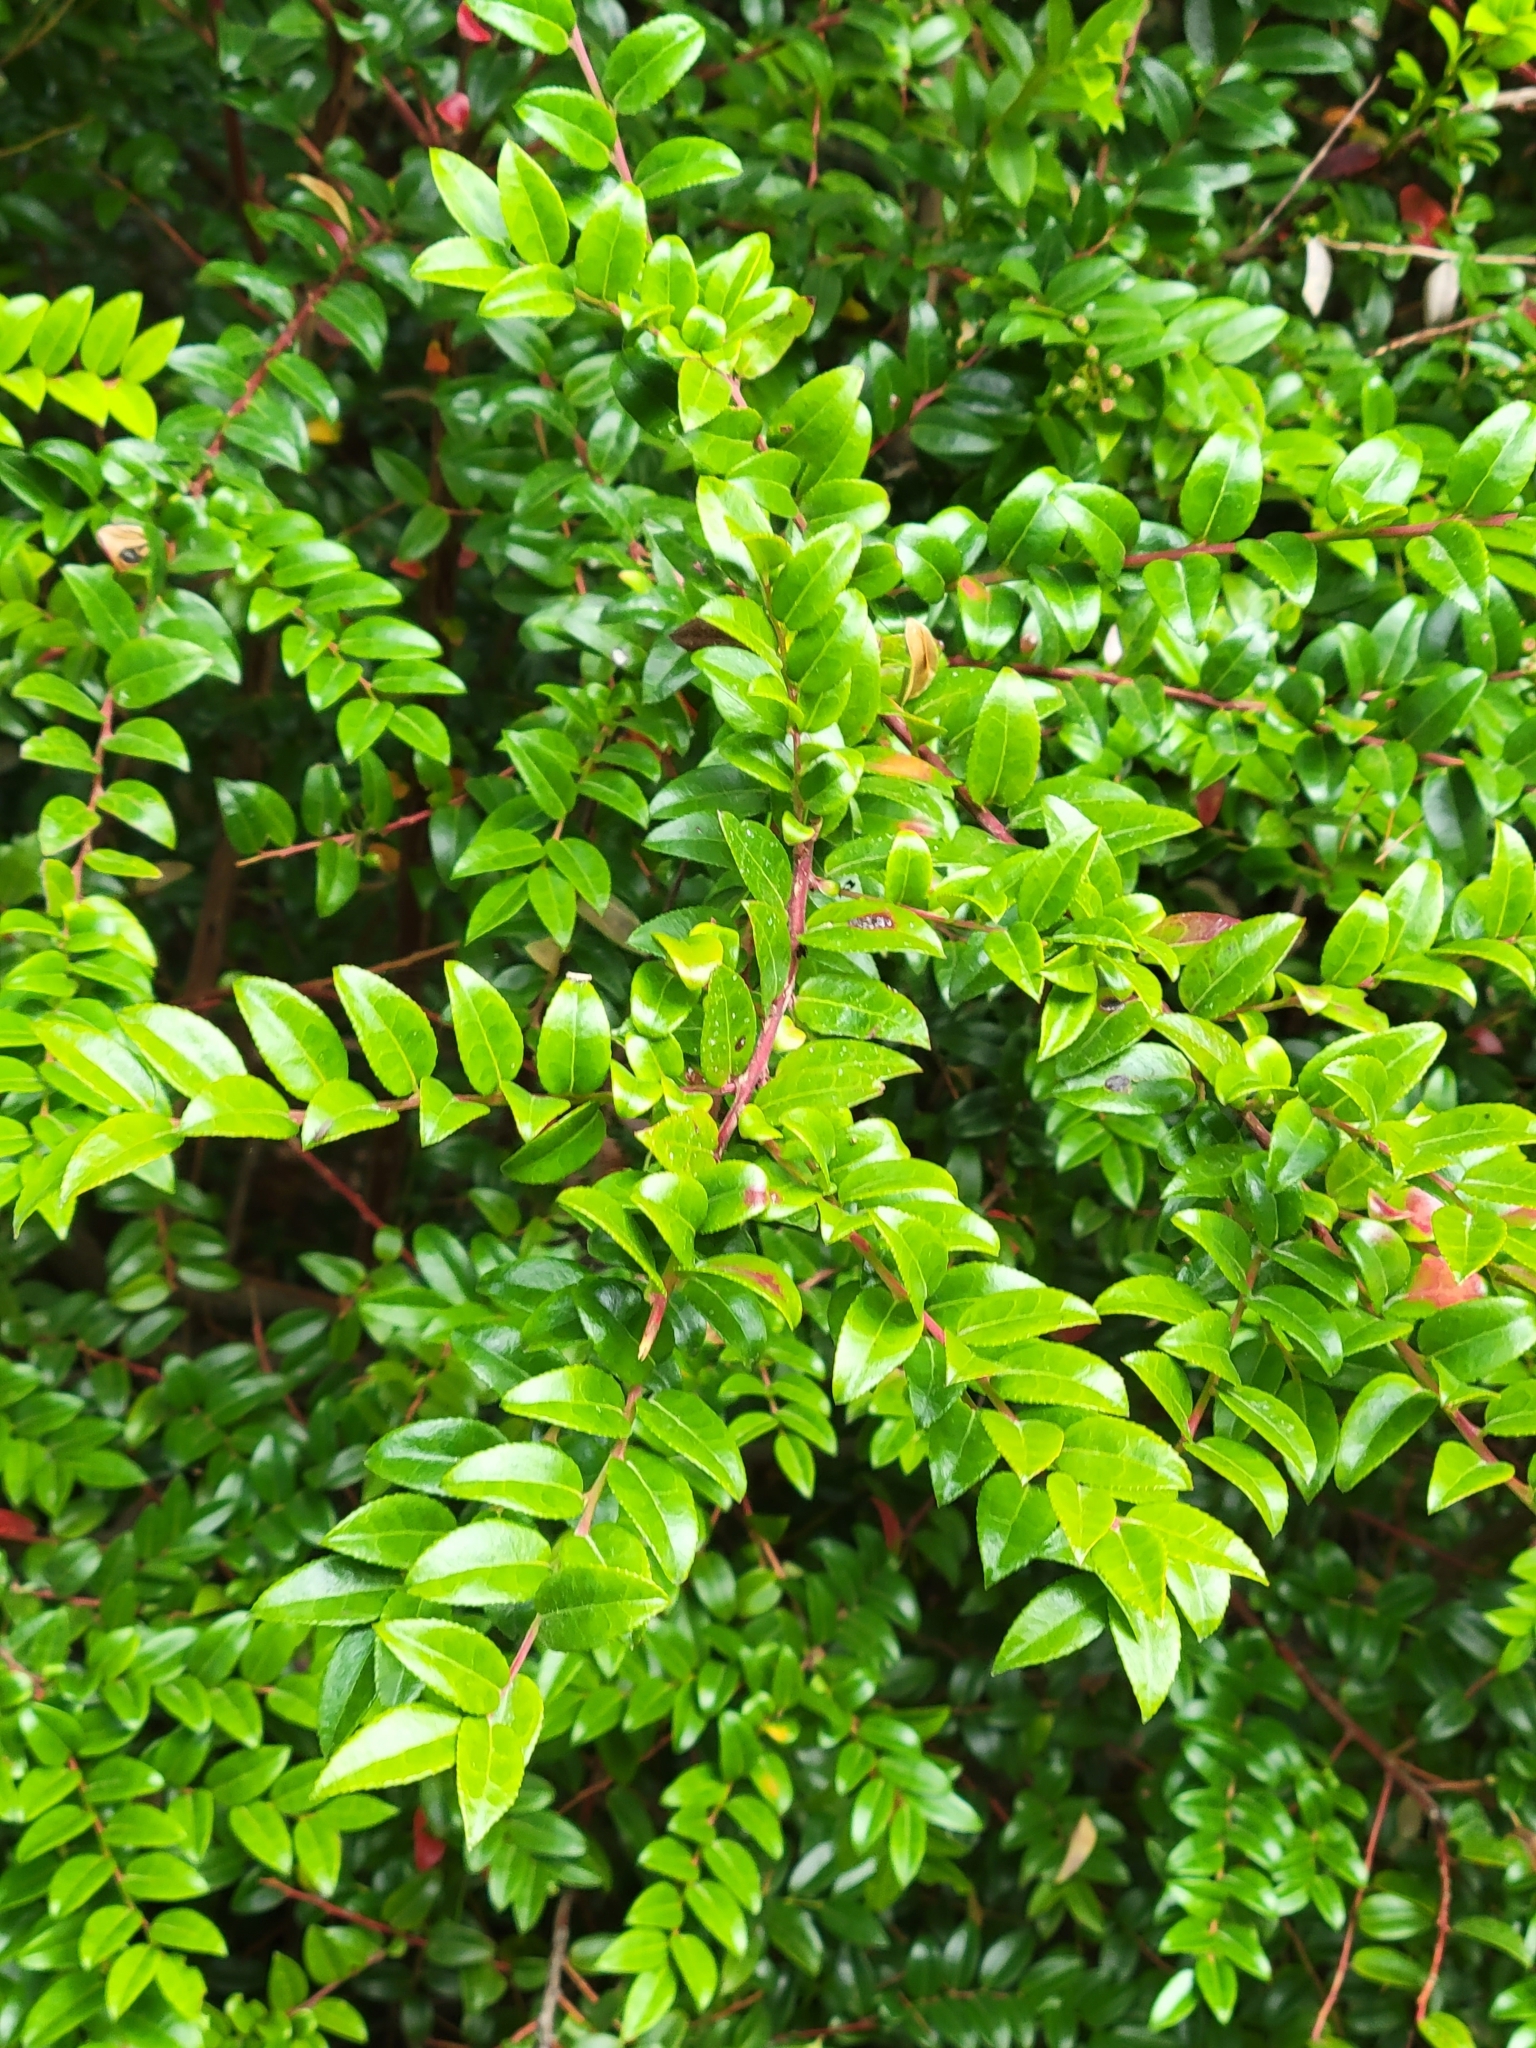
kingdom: Plantae
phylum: Tracheophyta
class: Magnoliopsida
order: Ericales
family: Ericaceae
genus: Vaccinium
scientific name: Vaccinium ovatum
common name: California-huckleberry
